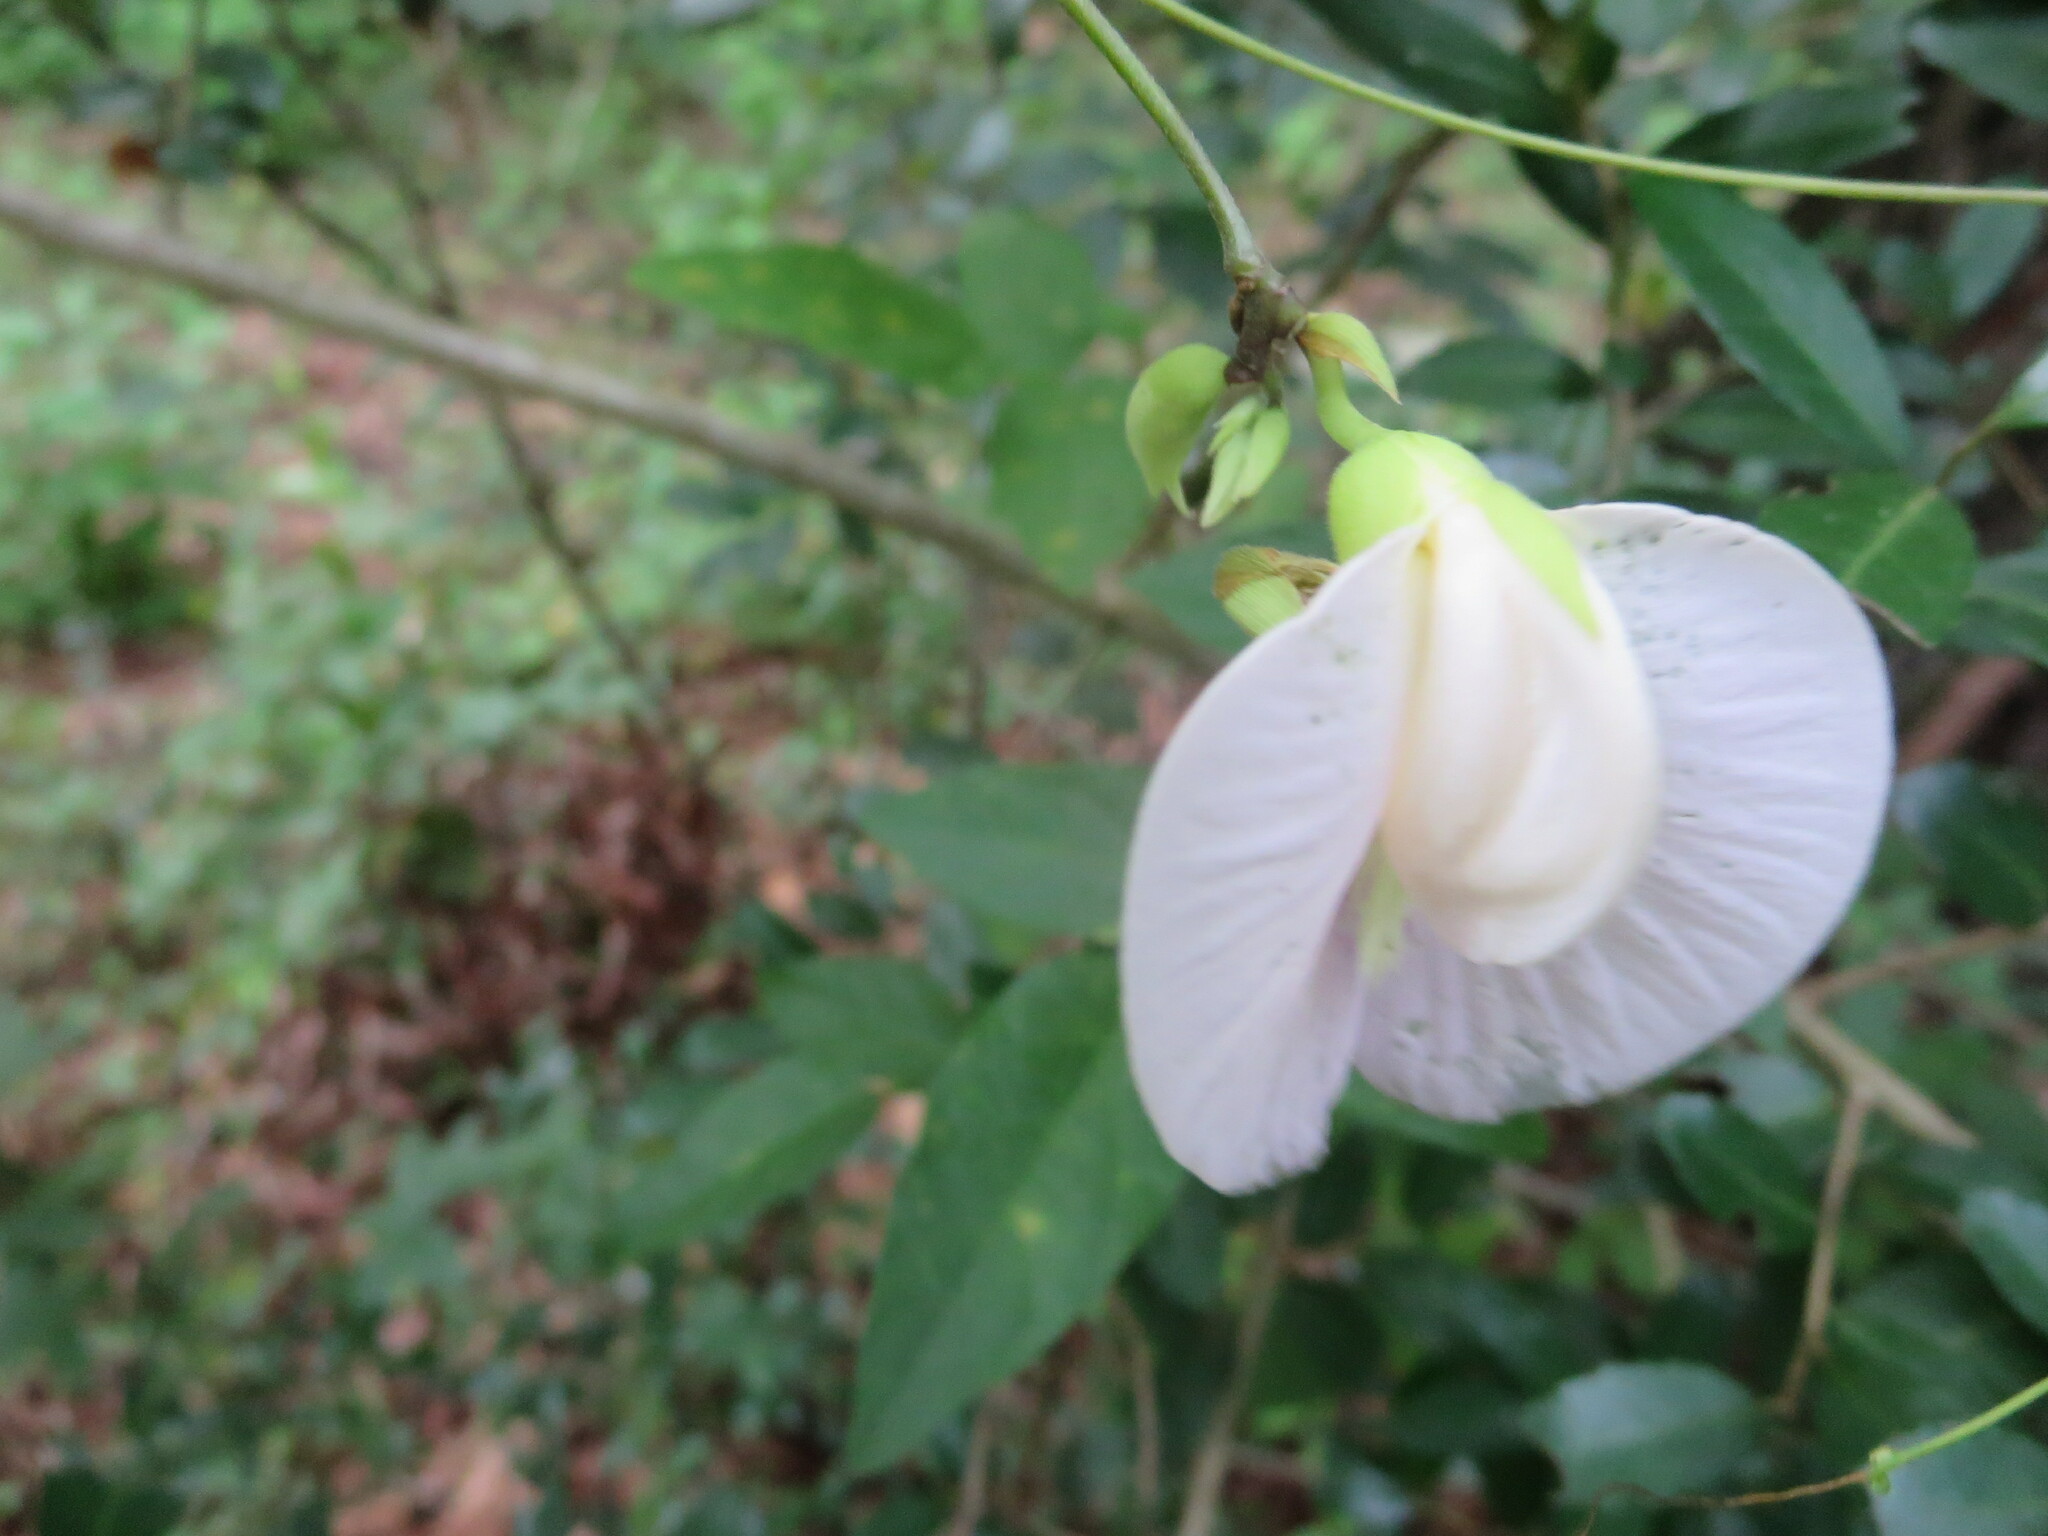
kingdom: Plantae
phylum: Tracheophyta
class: Magnoliopsida
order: Fabales
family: Fabaceae
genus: Centrosema
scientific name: Centrosema arenicola
